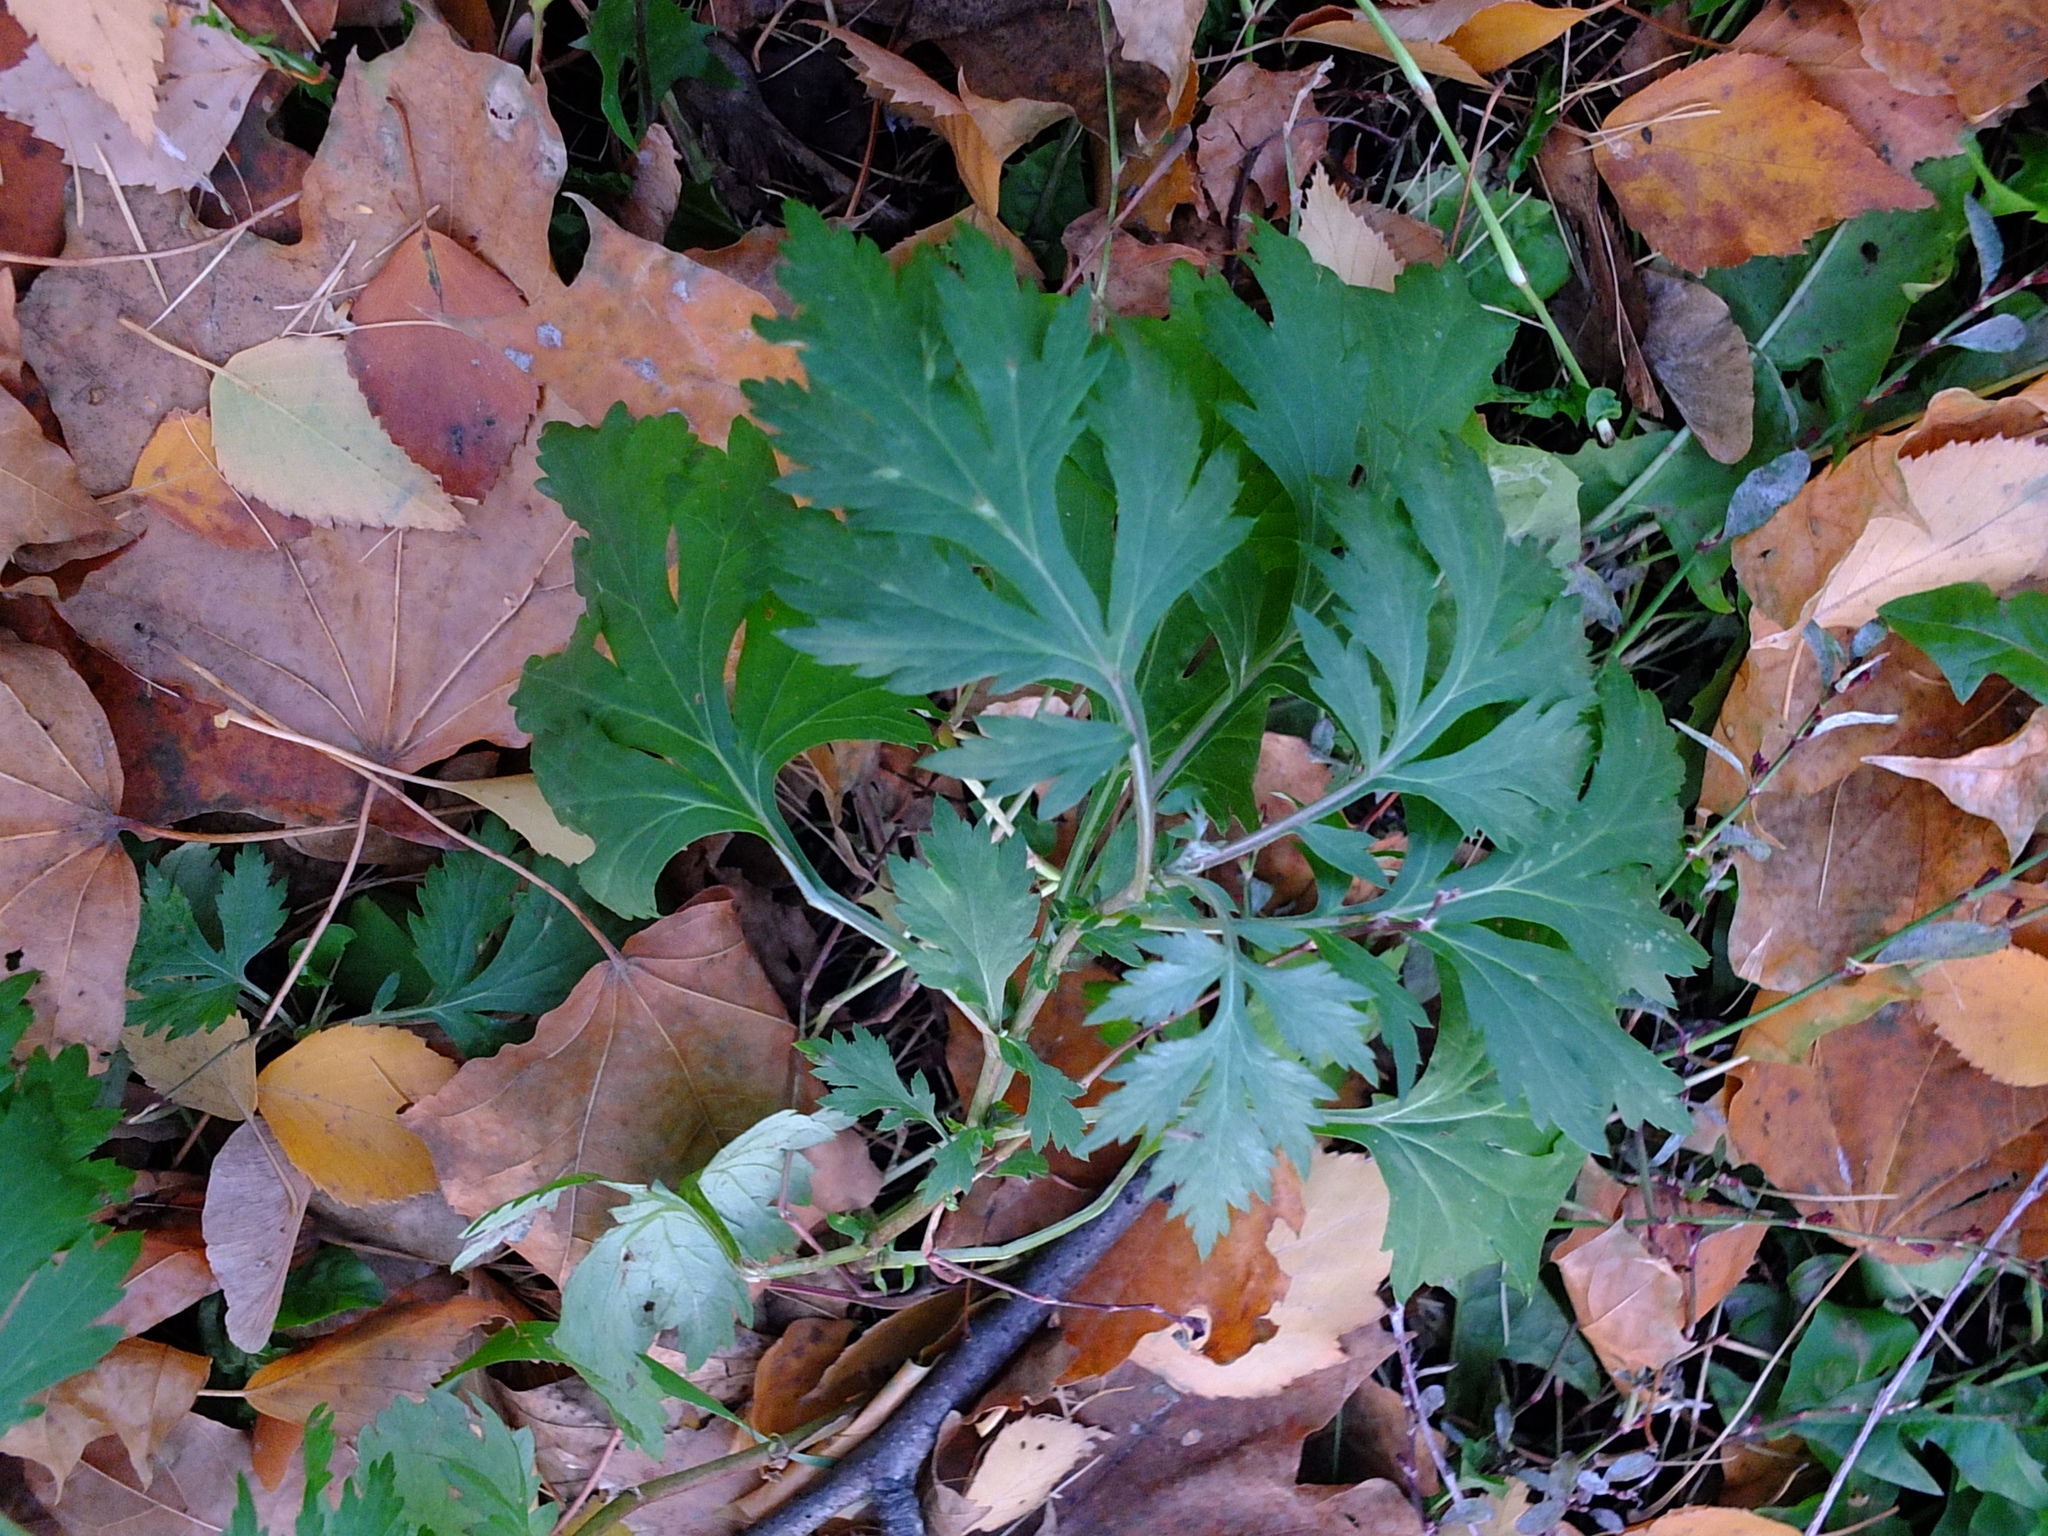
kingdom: Plantae
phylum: Tracheophyta
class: Magnoliopsida
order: Asterales
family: Asteraceae
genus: Artemisia
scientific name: Artemisia vulgaris
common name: Mugwort
